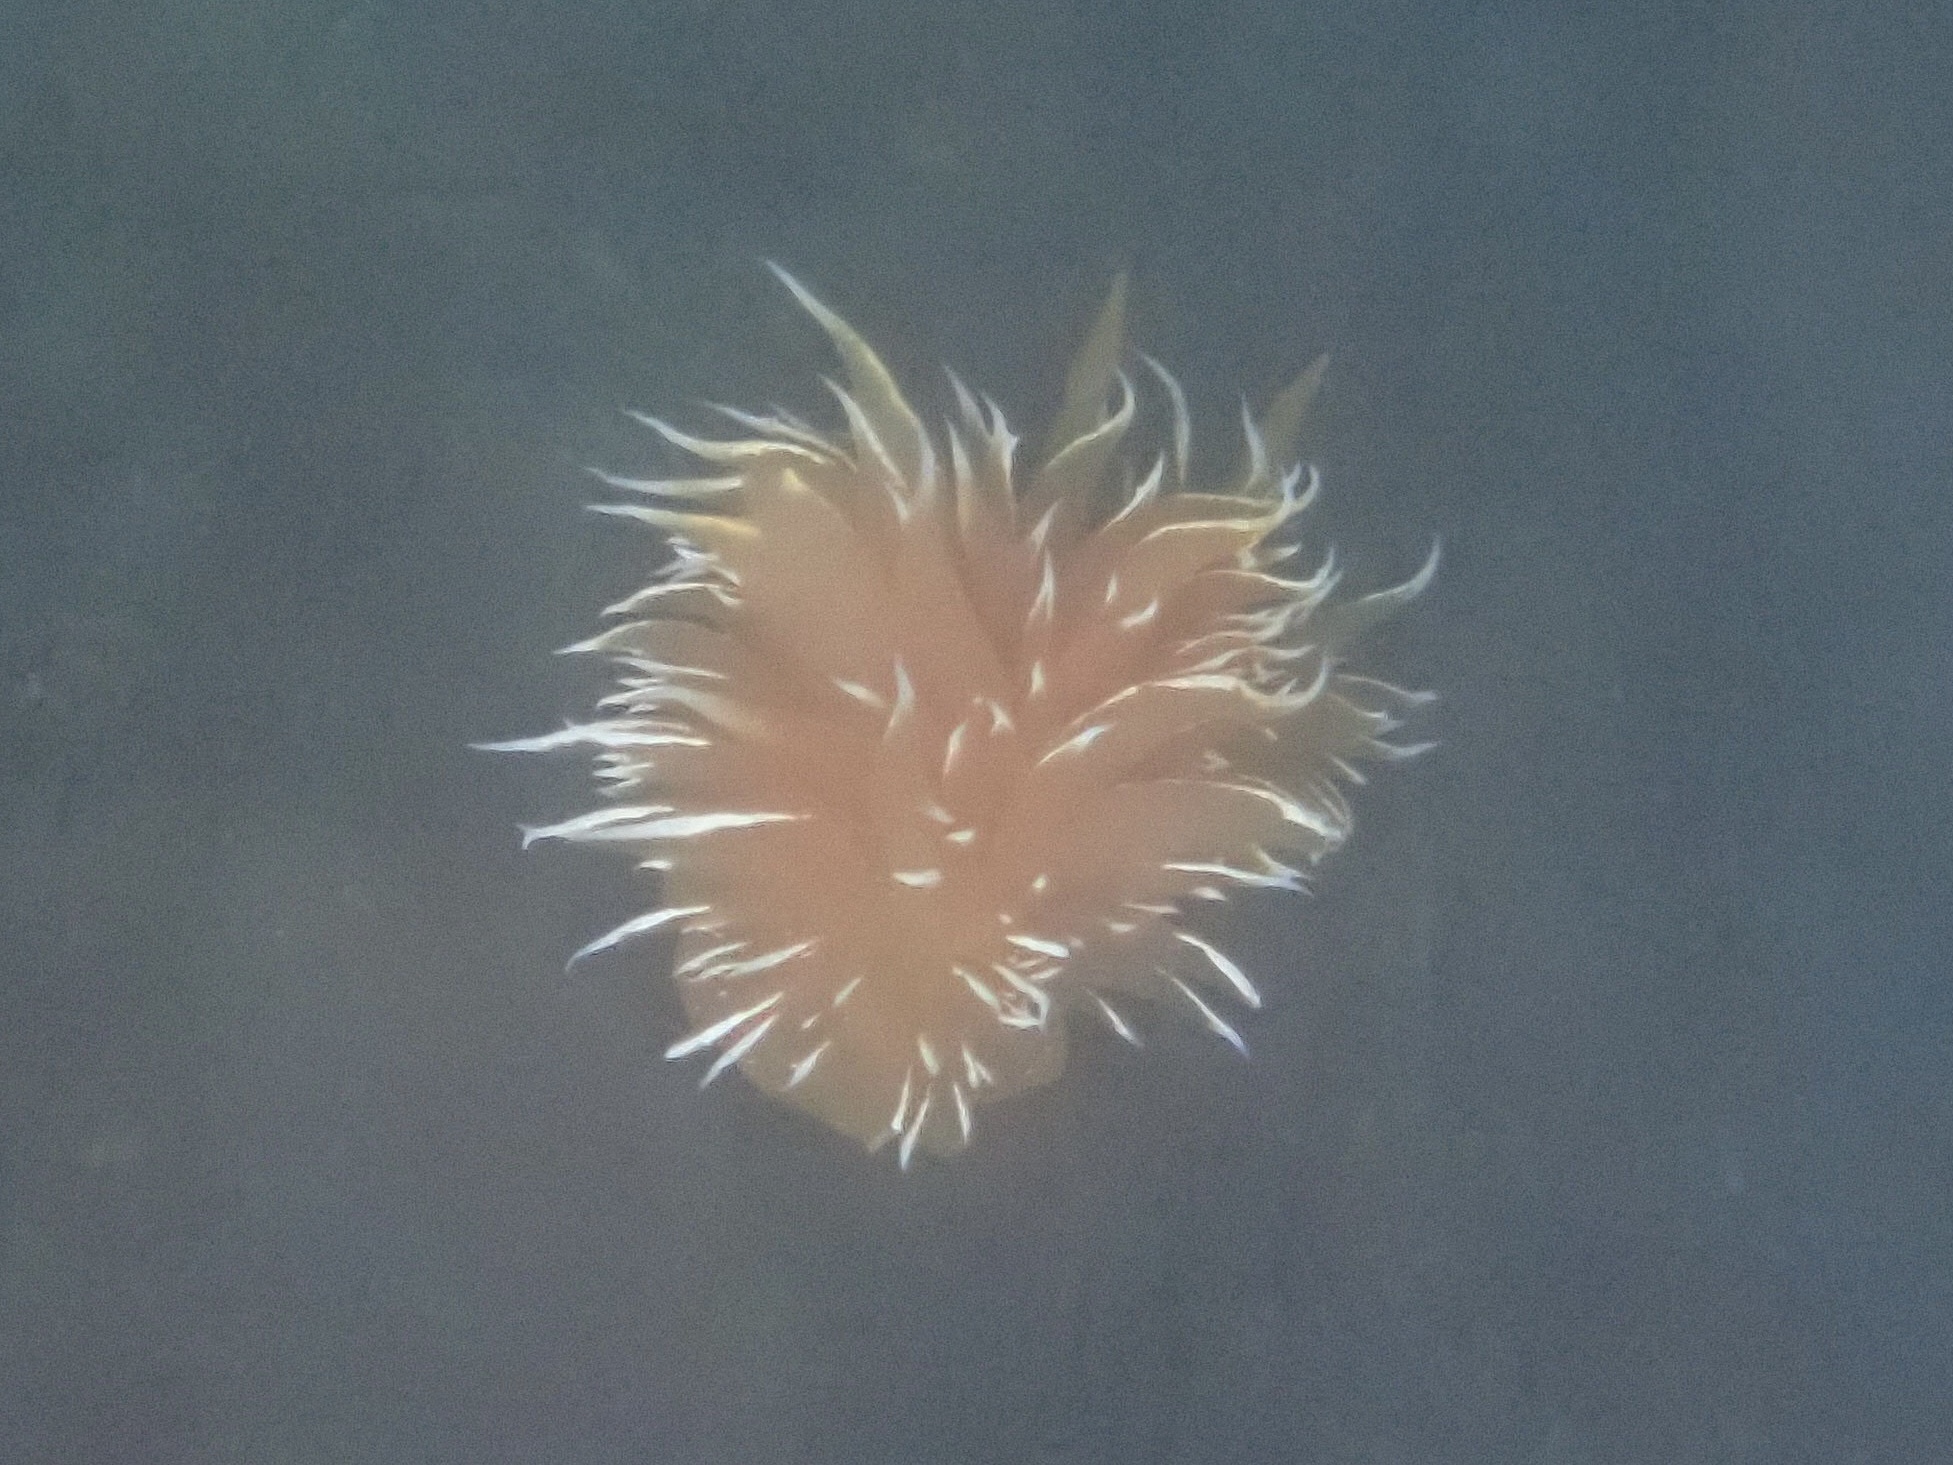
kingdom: Animalia
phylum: Mollusca
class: Gastropoda
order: Nudibranchia
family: Dironidae
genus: Dirona
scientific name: Dirona pellucida
